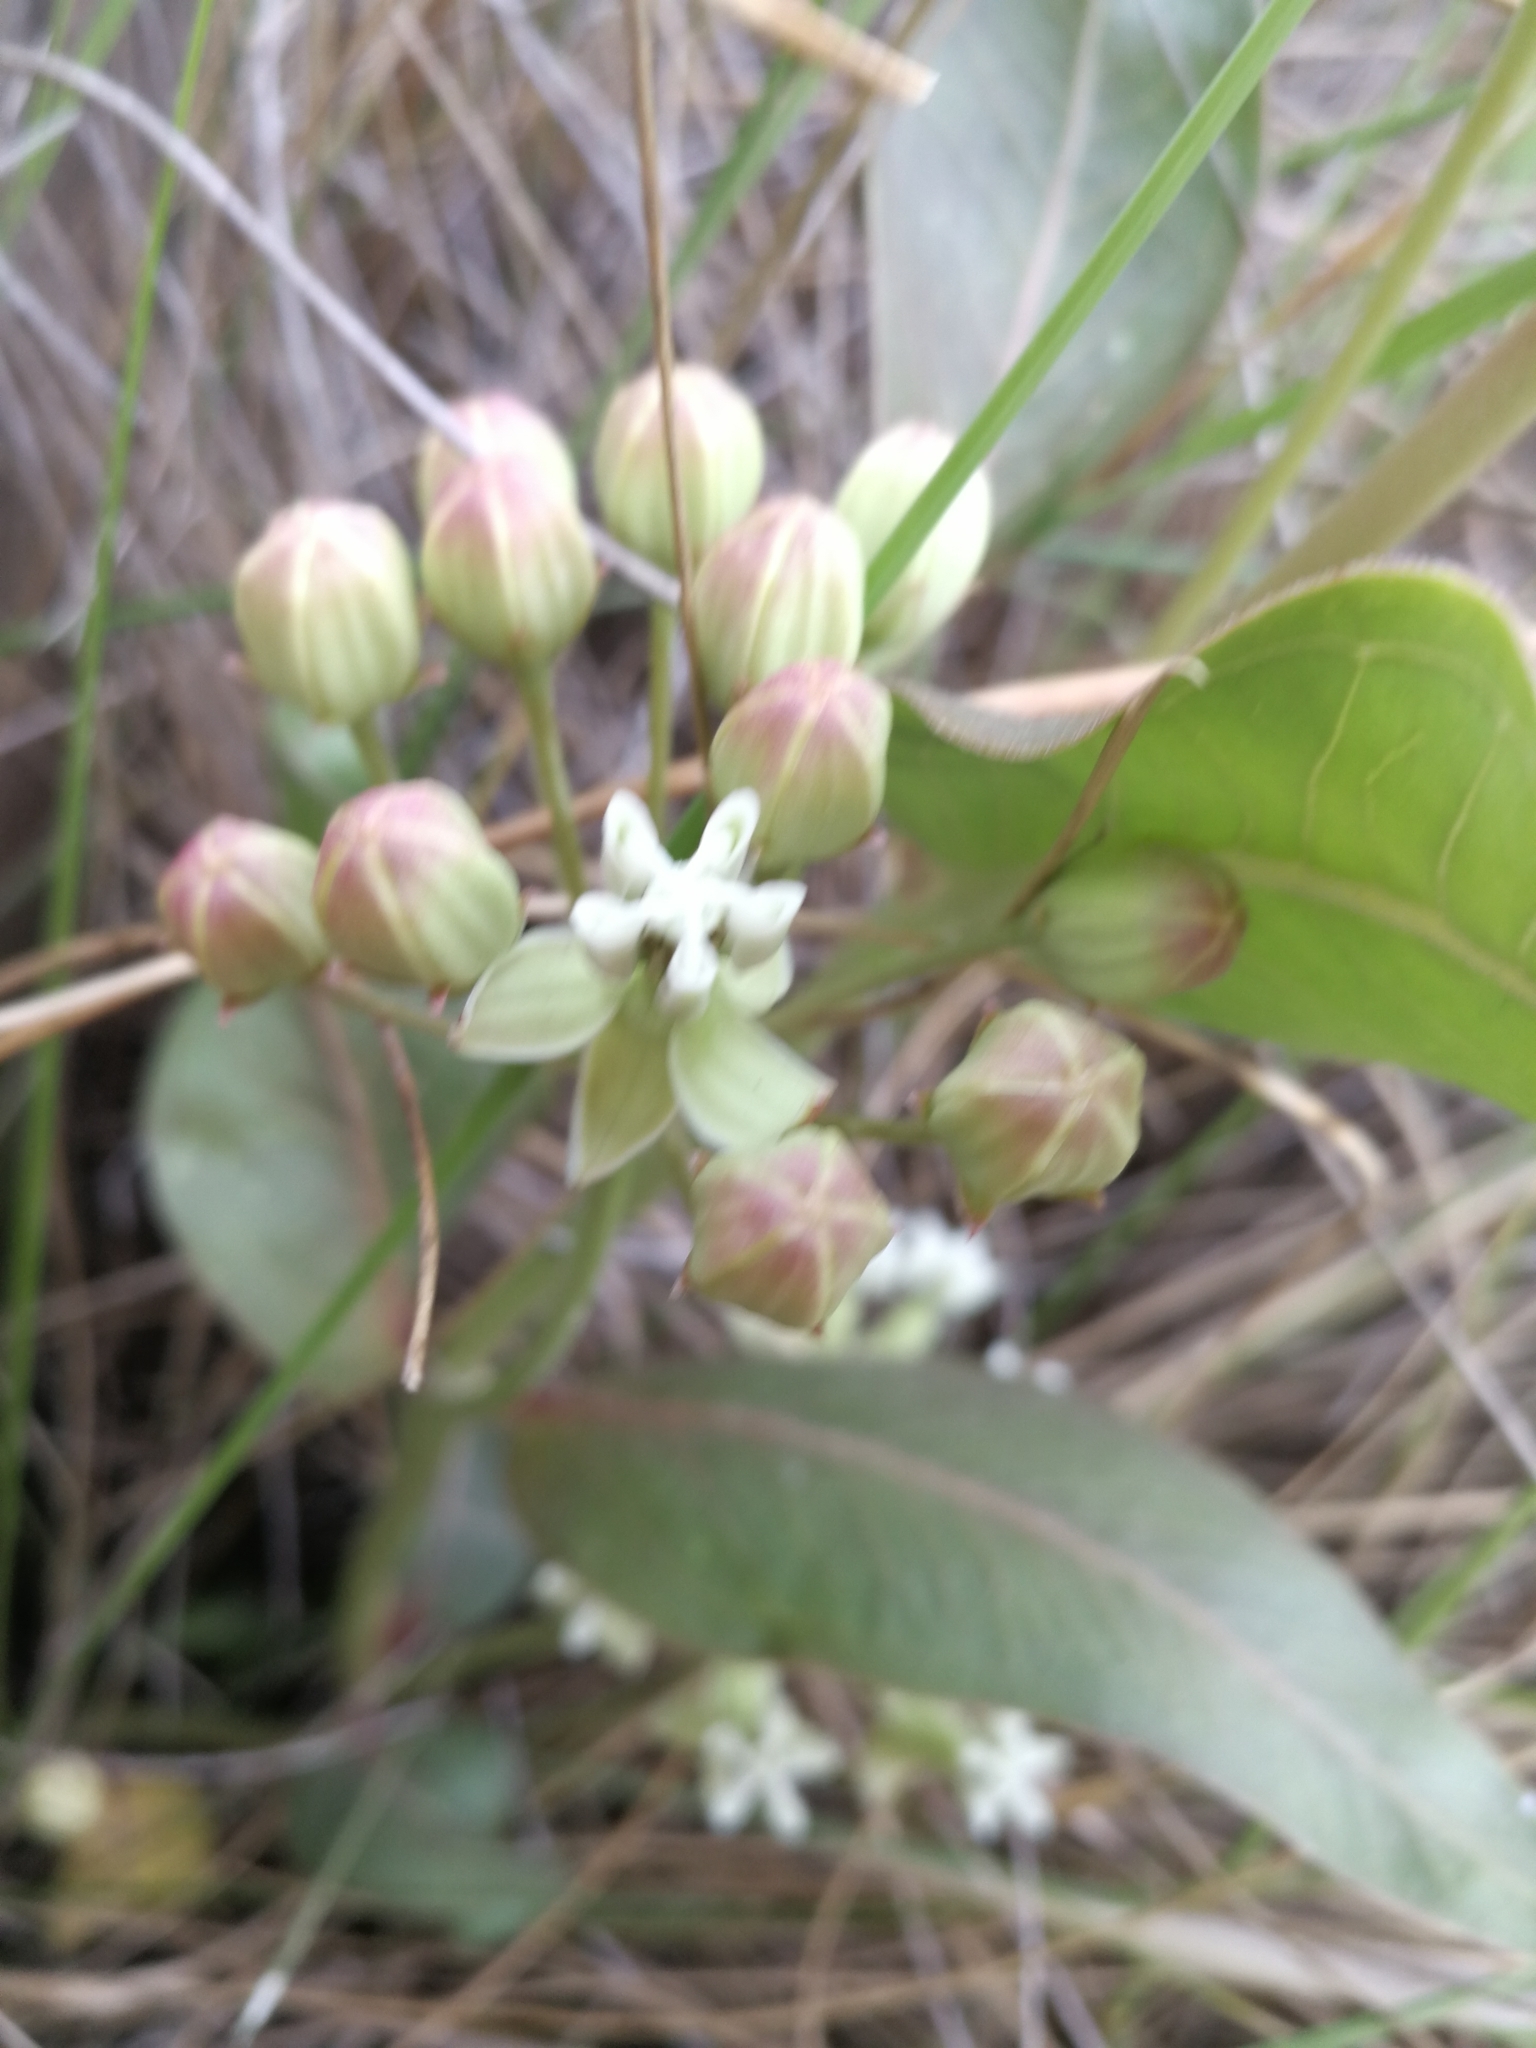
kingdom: Plantae
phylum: Tracheophyta
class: Magnoliopsida
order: Gentianales
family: Apocynaceae
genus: Asclepias
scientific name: Asclepias mellodora
